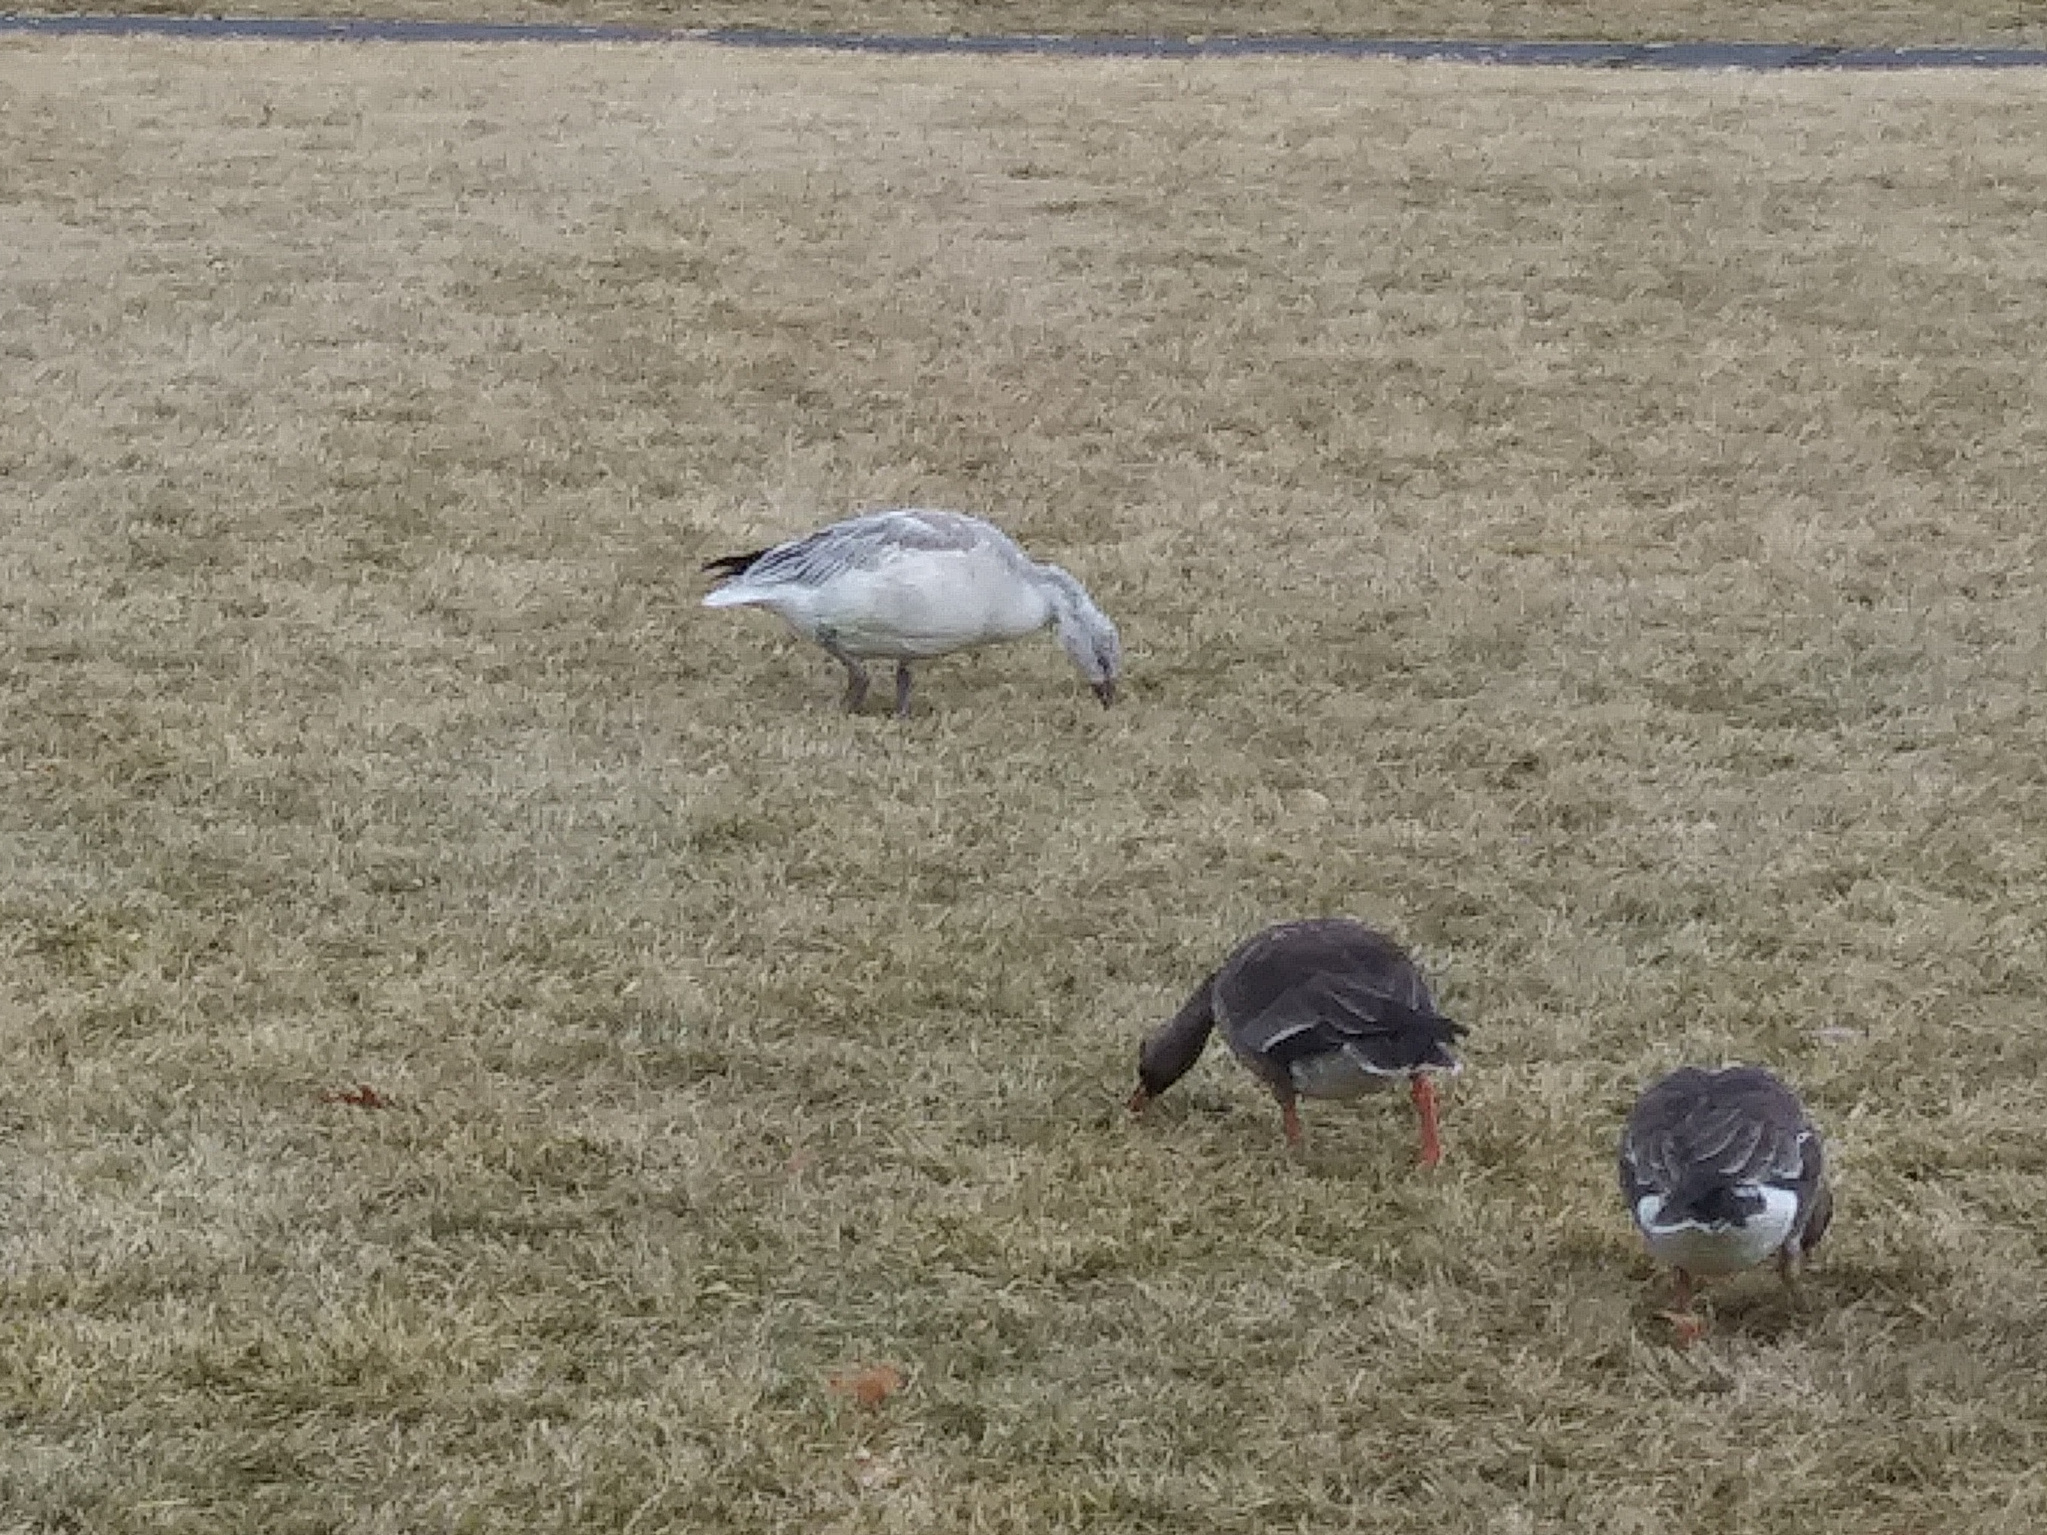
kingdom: Animalia
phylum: Chordata
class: Aves
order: Anseriformes
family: Anatidae
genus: Anser
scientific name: Anser caerulescens
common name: Snow goose
